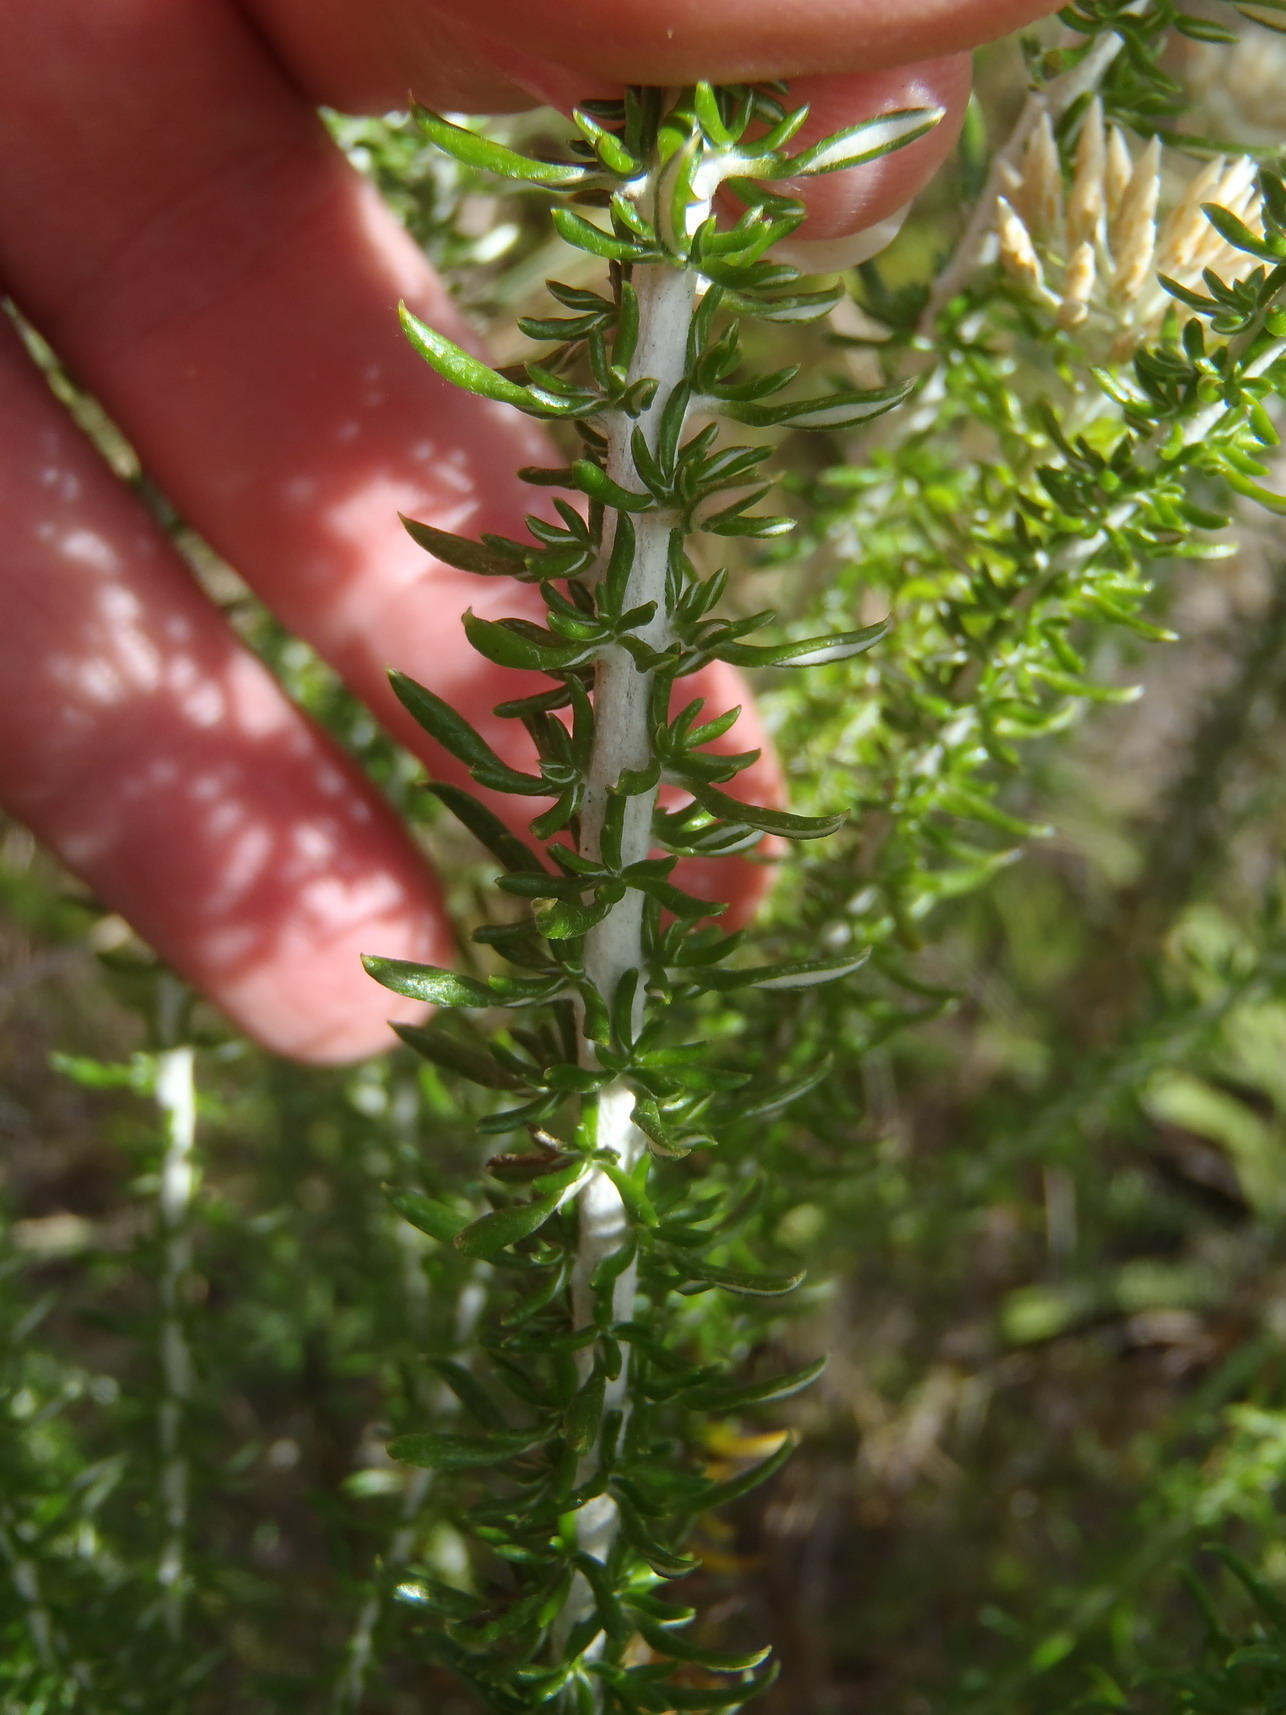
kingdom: Plantae
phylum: Tracheophyta
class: Magnoliopsida
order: Asterales
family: Asteraceae
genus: Metalasia
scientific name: Metalasia muricata
